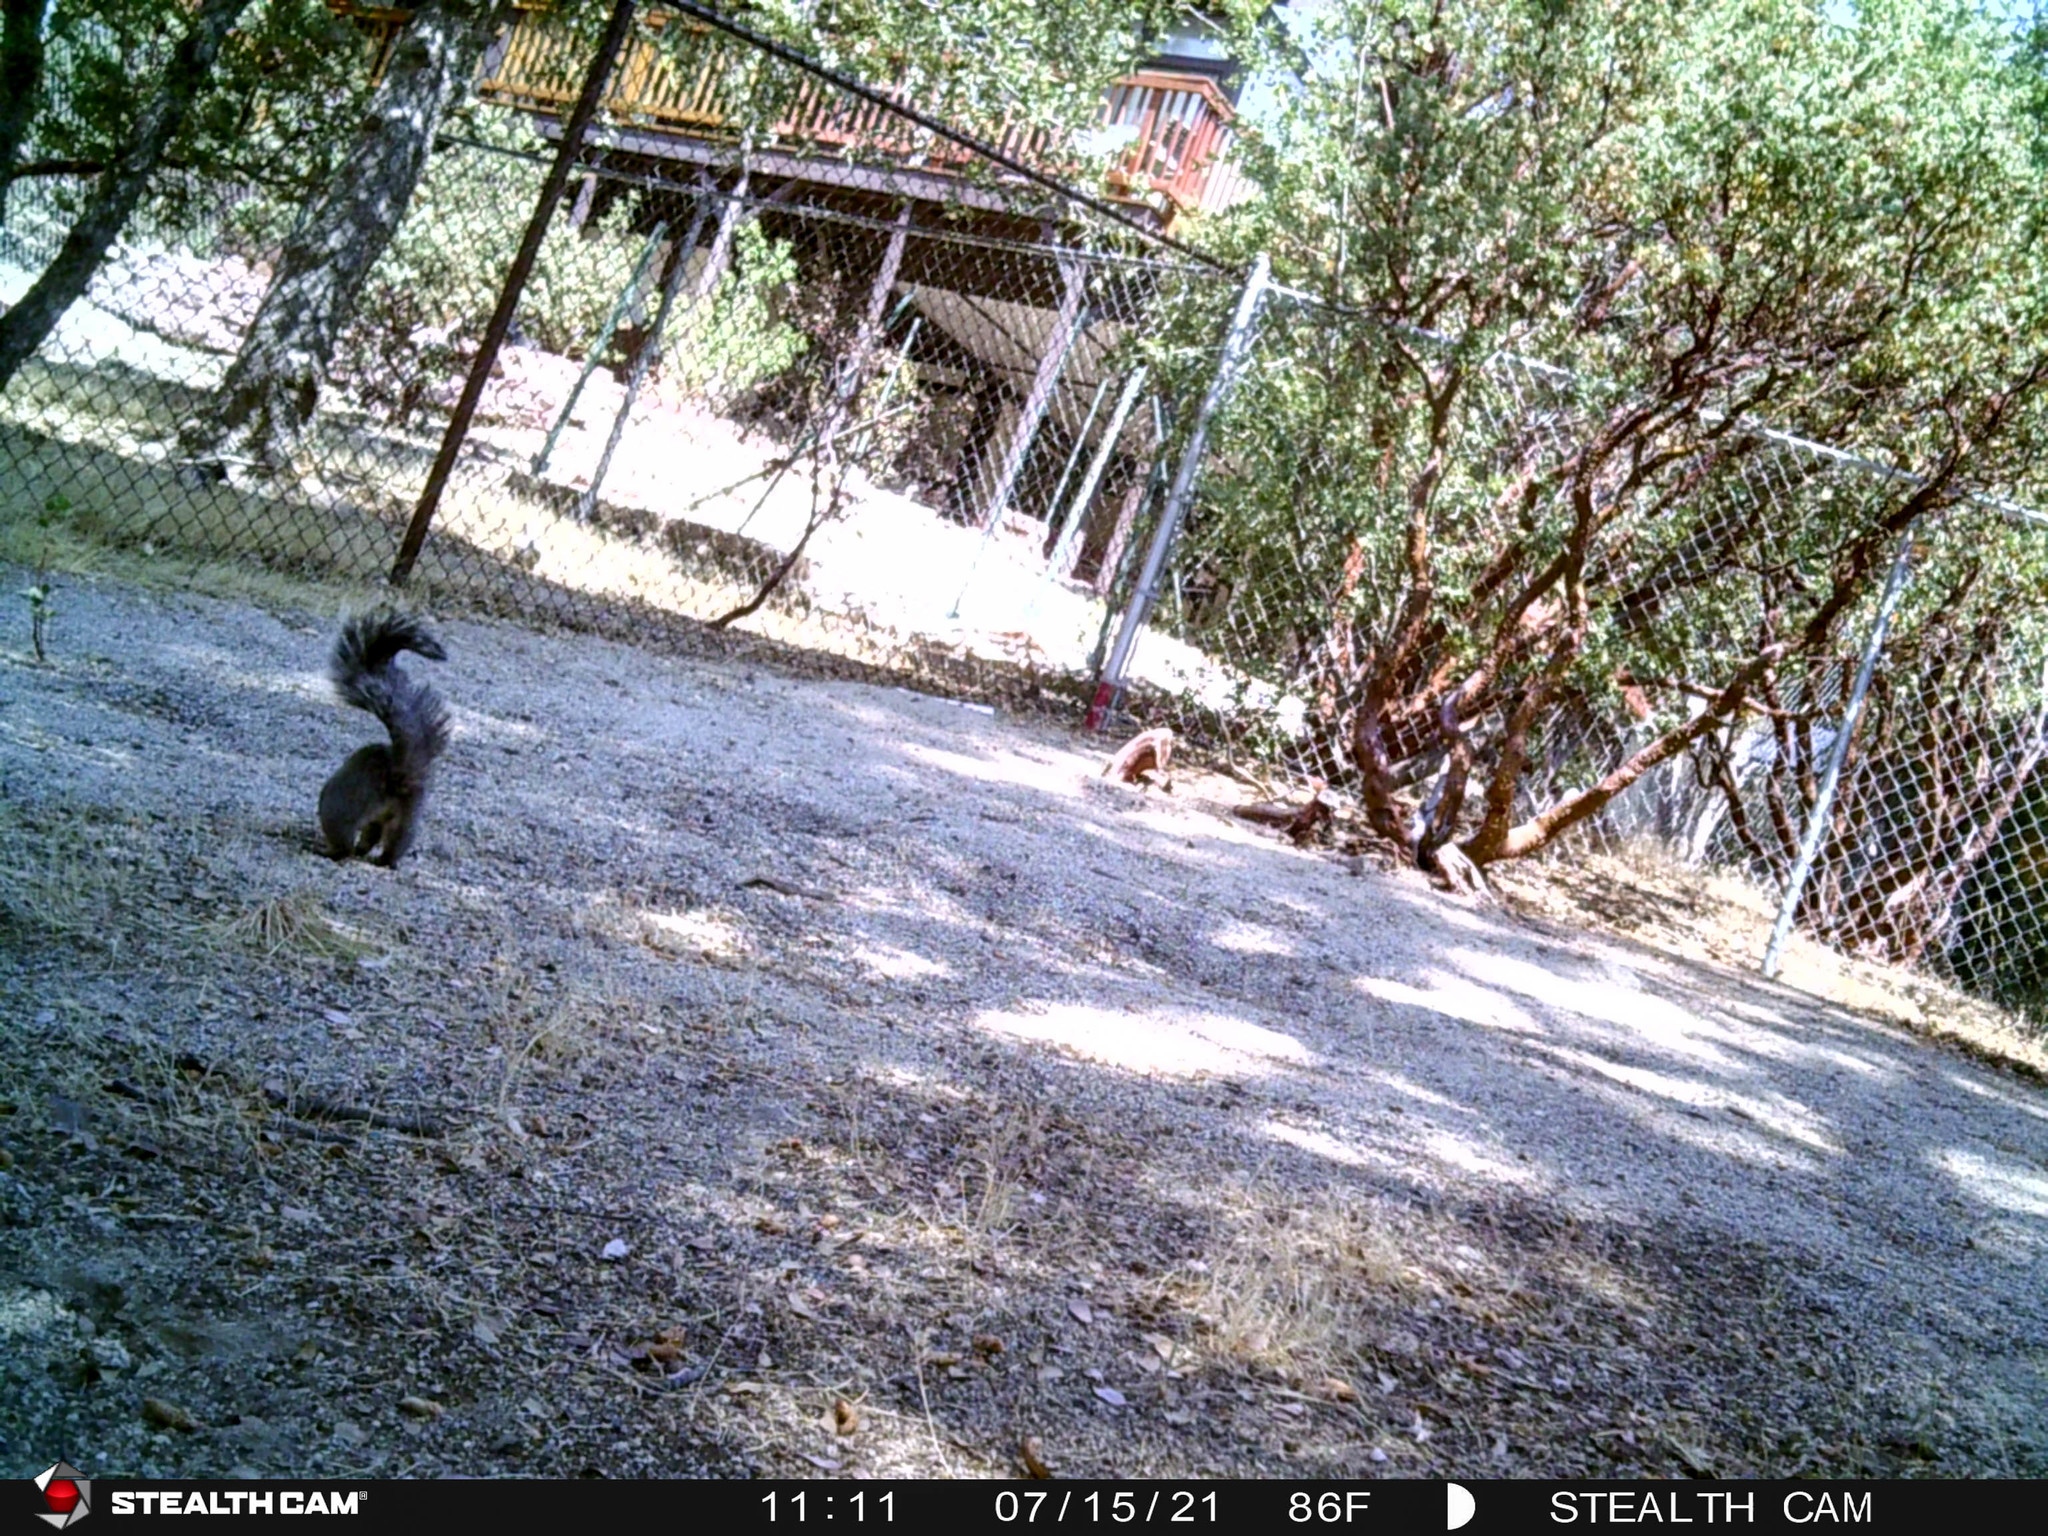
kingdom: Animalia
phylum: Chordata
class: Mammalia
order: Rodentia
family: Sciuridae
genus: Sciurus
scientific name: Sciurus griseus
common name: Western gray squirrel
